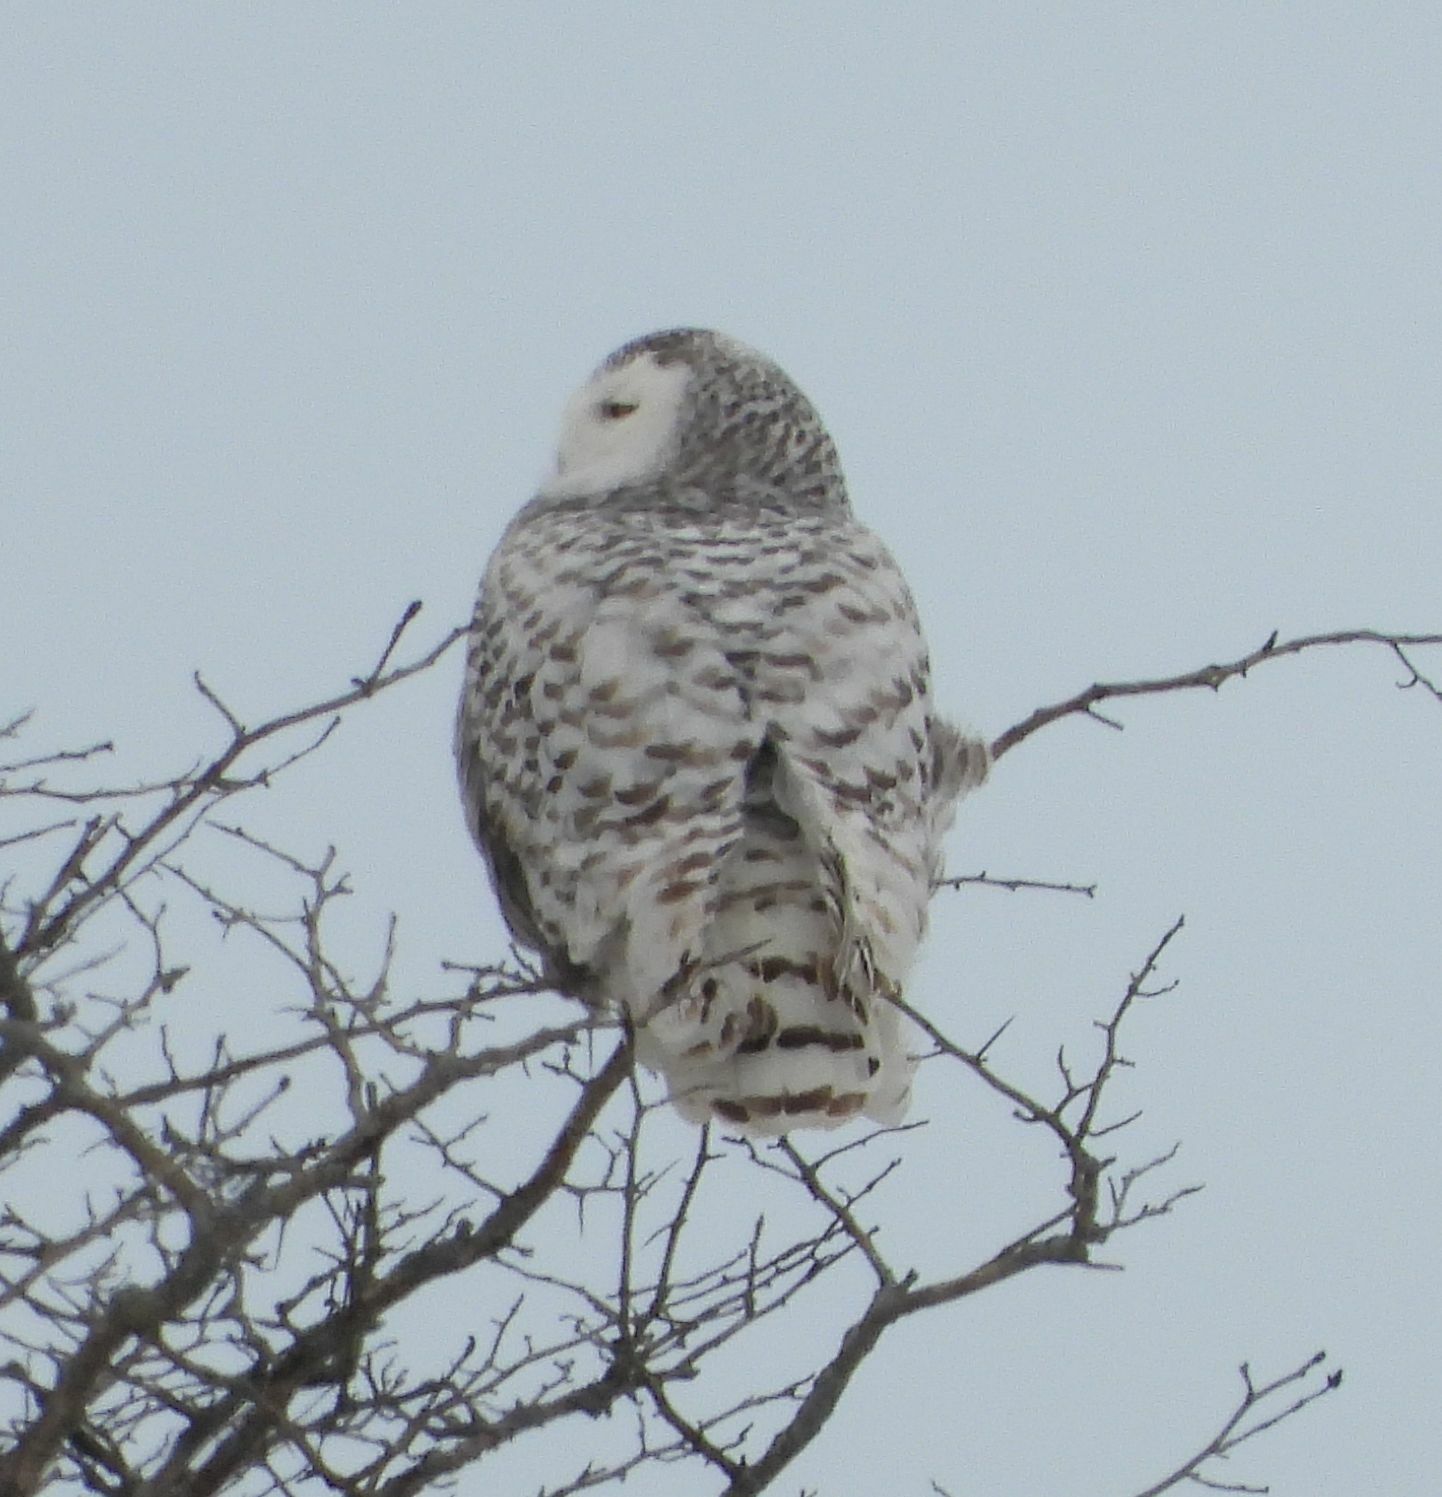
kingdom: Animalia
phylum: Chordata
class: Aves
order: Strigiformes
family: Strigidae
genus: Bubo
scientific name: Bubo scandiacus
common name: Snowy owl
